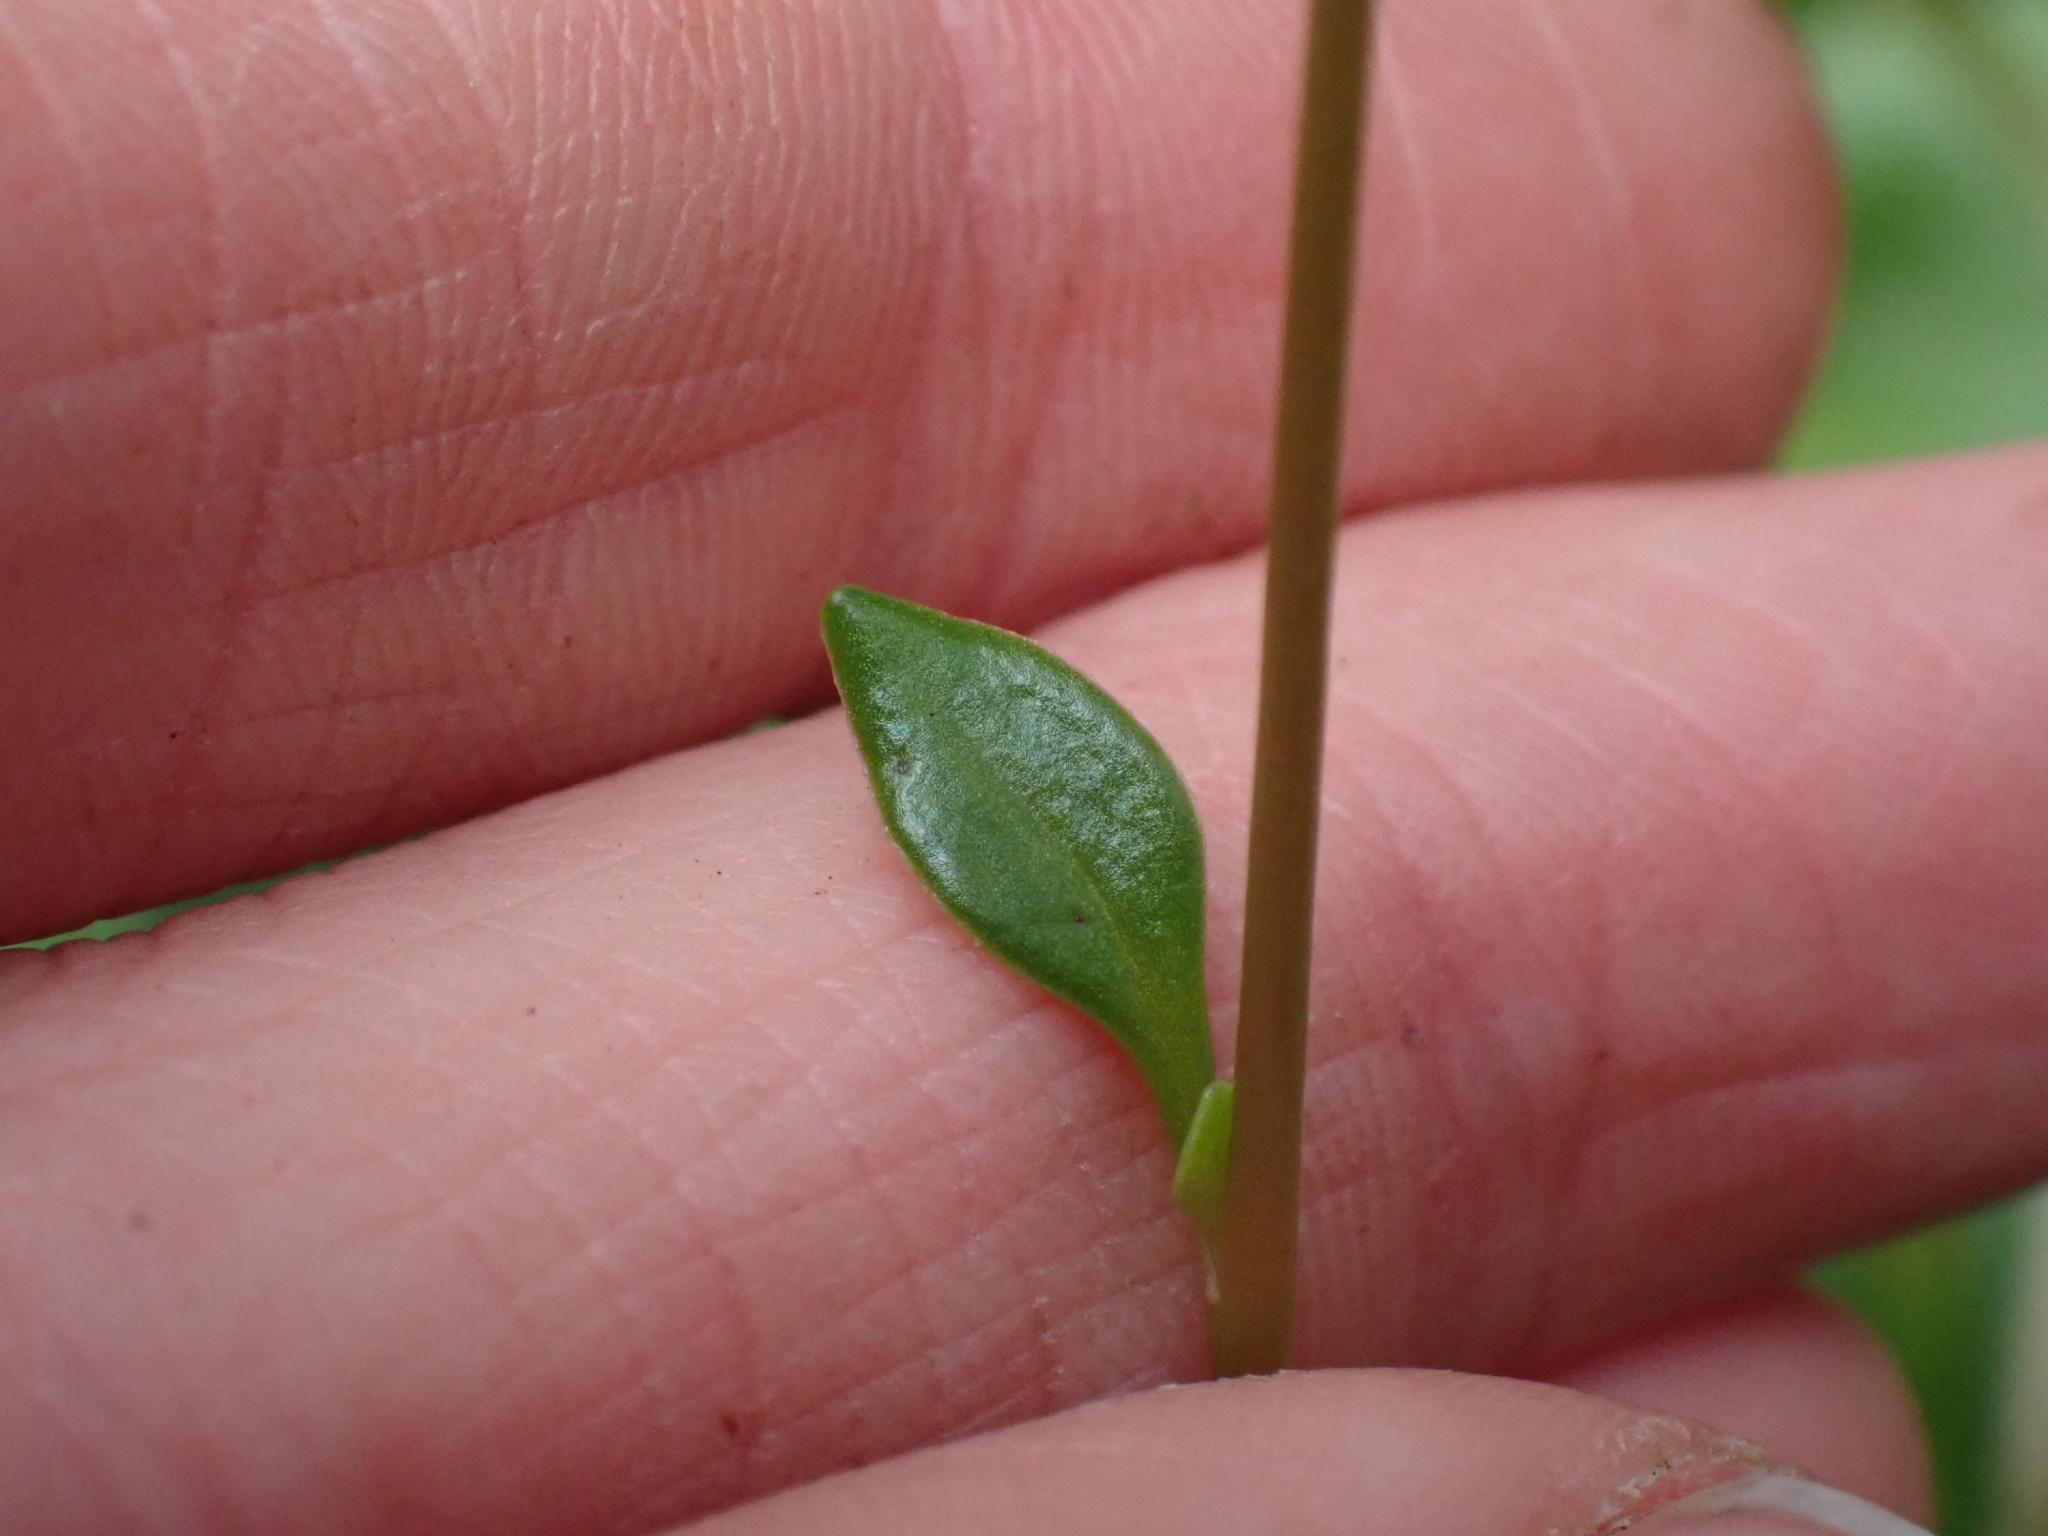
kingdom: Plantae
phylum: Tracheophyta
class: Magnoliopsida
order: Caryophyllales
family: Montiaceae
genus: Montia
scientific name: Montia parvifolia
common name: Small-leaved blinks
